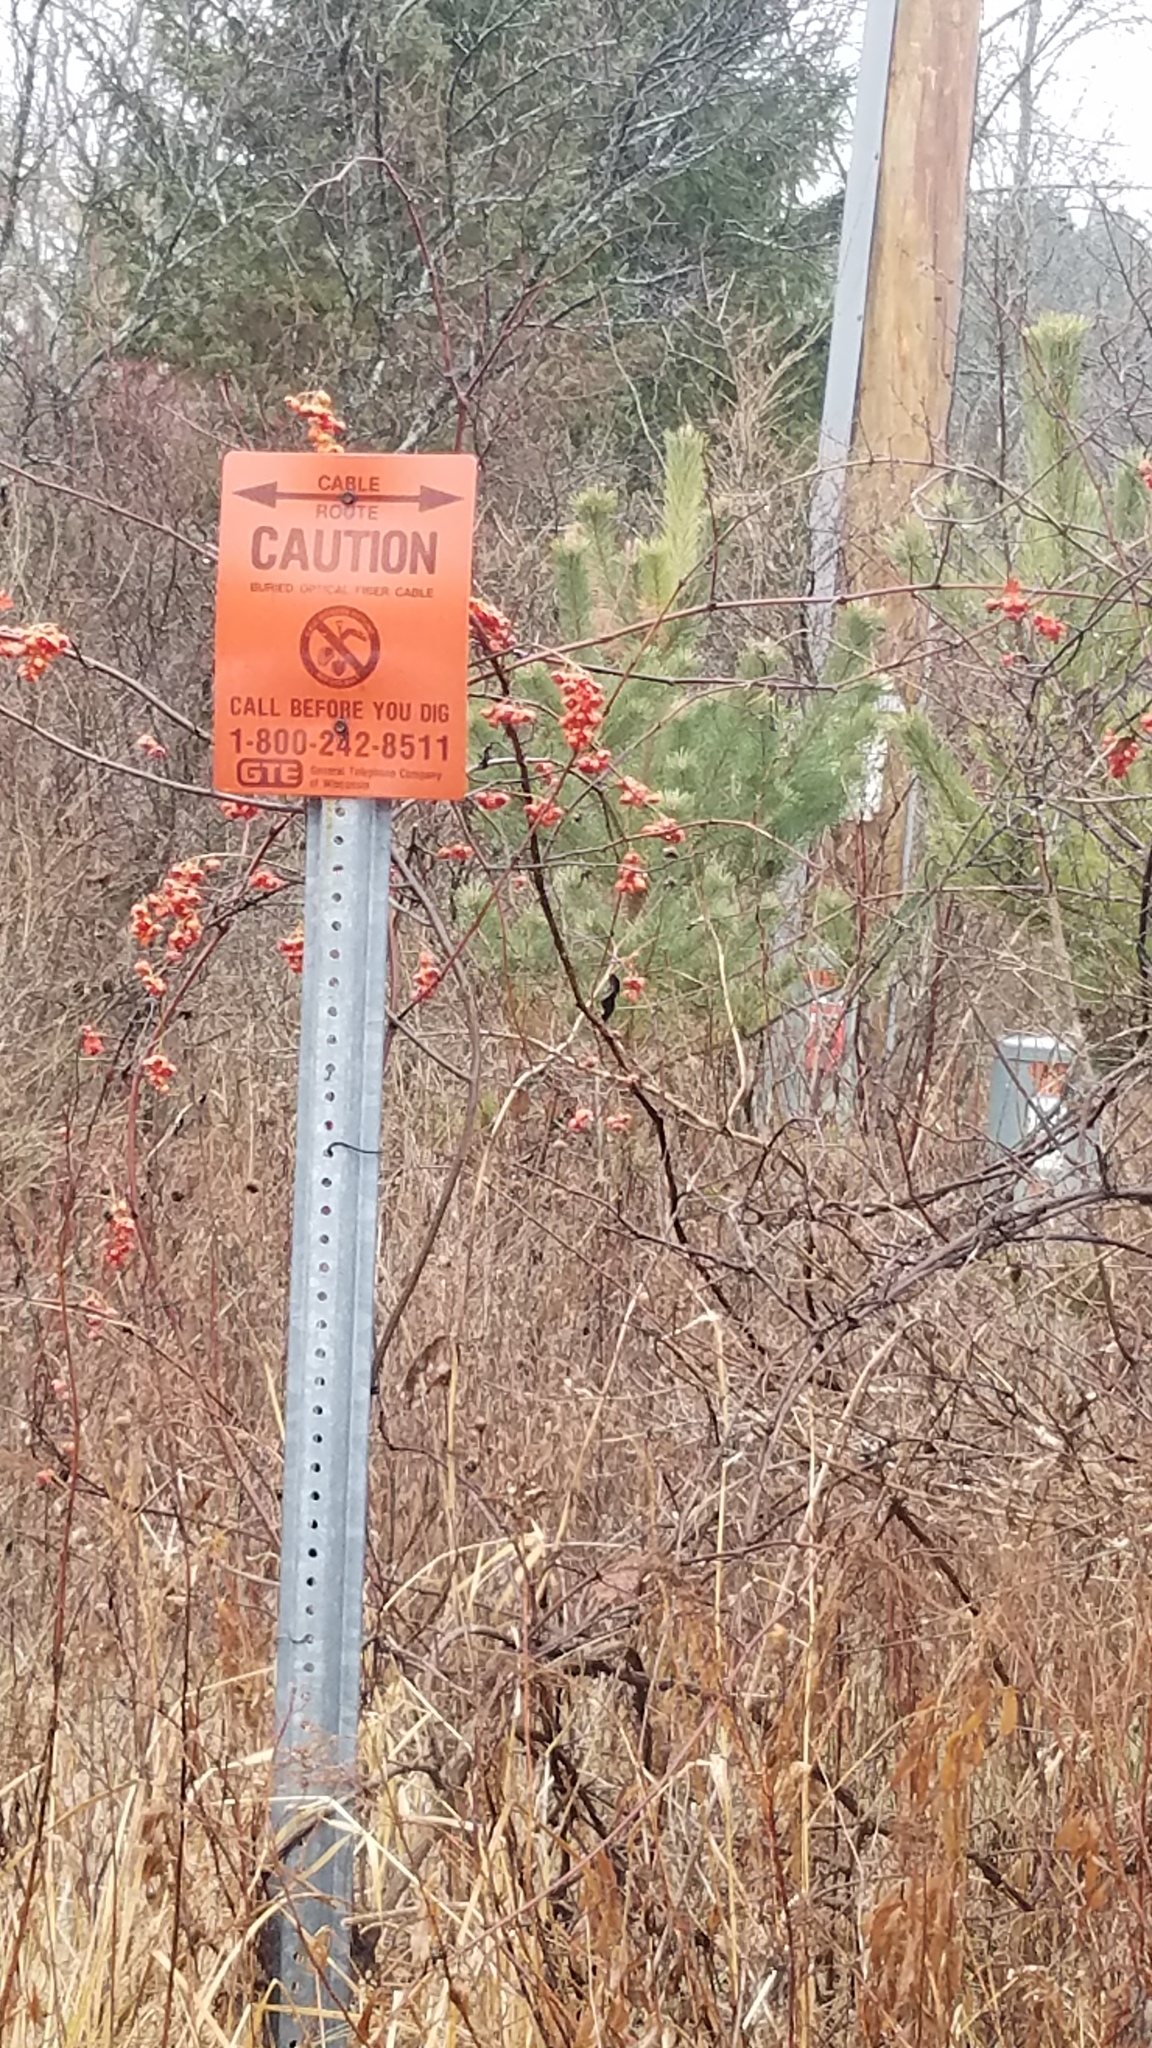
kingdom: Plantae
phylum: Tracheophyta
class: Magnoliopsida
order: Celastrales
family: Celastraceae
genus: Celastrus
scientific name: Celastrus scandens
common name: American bittersweet
